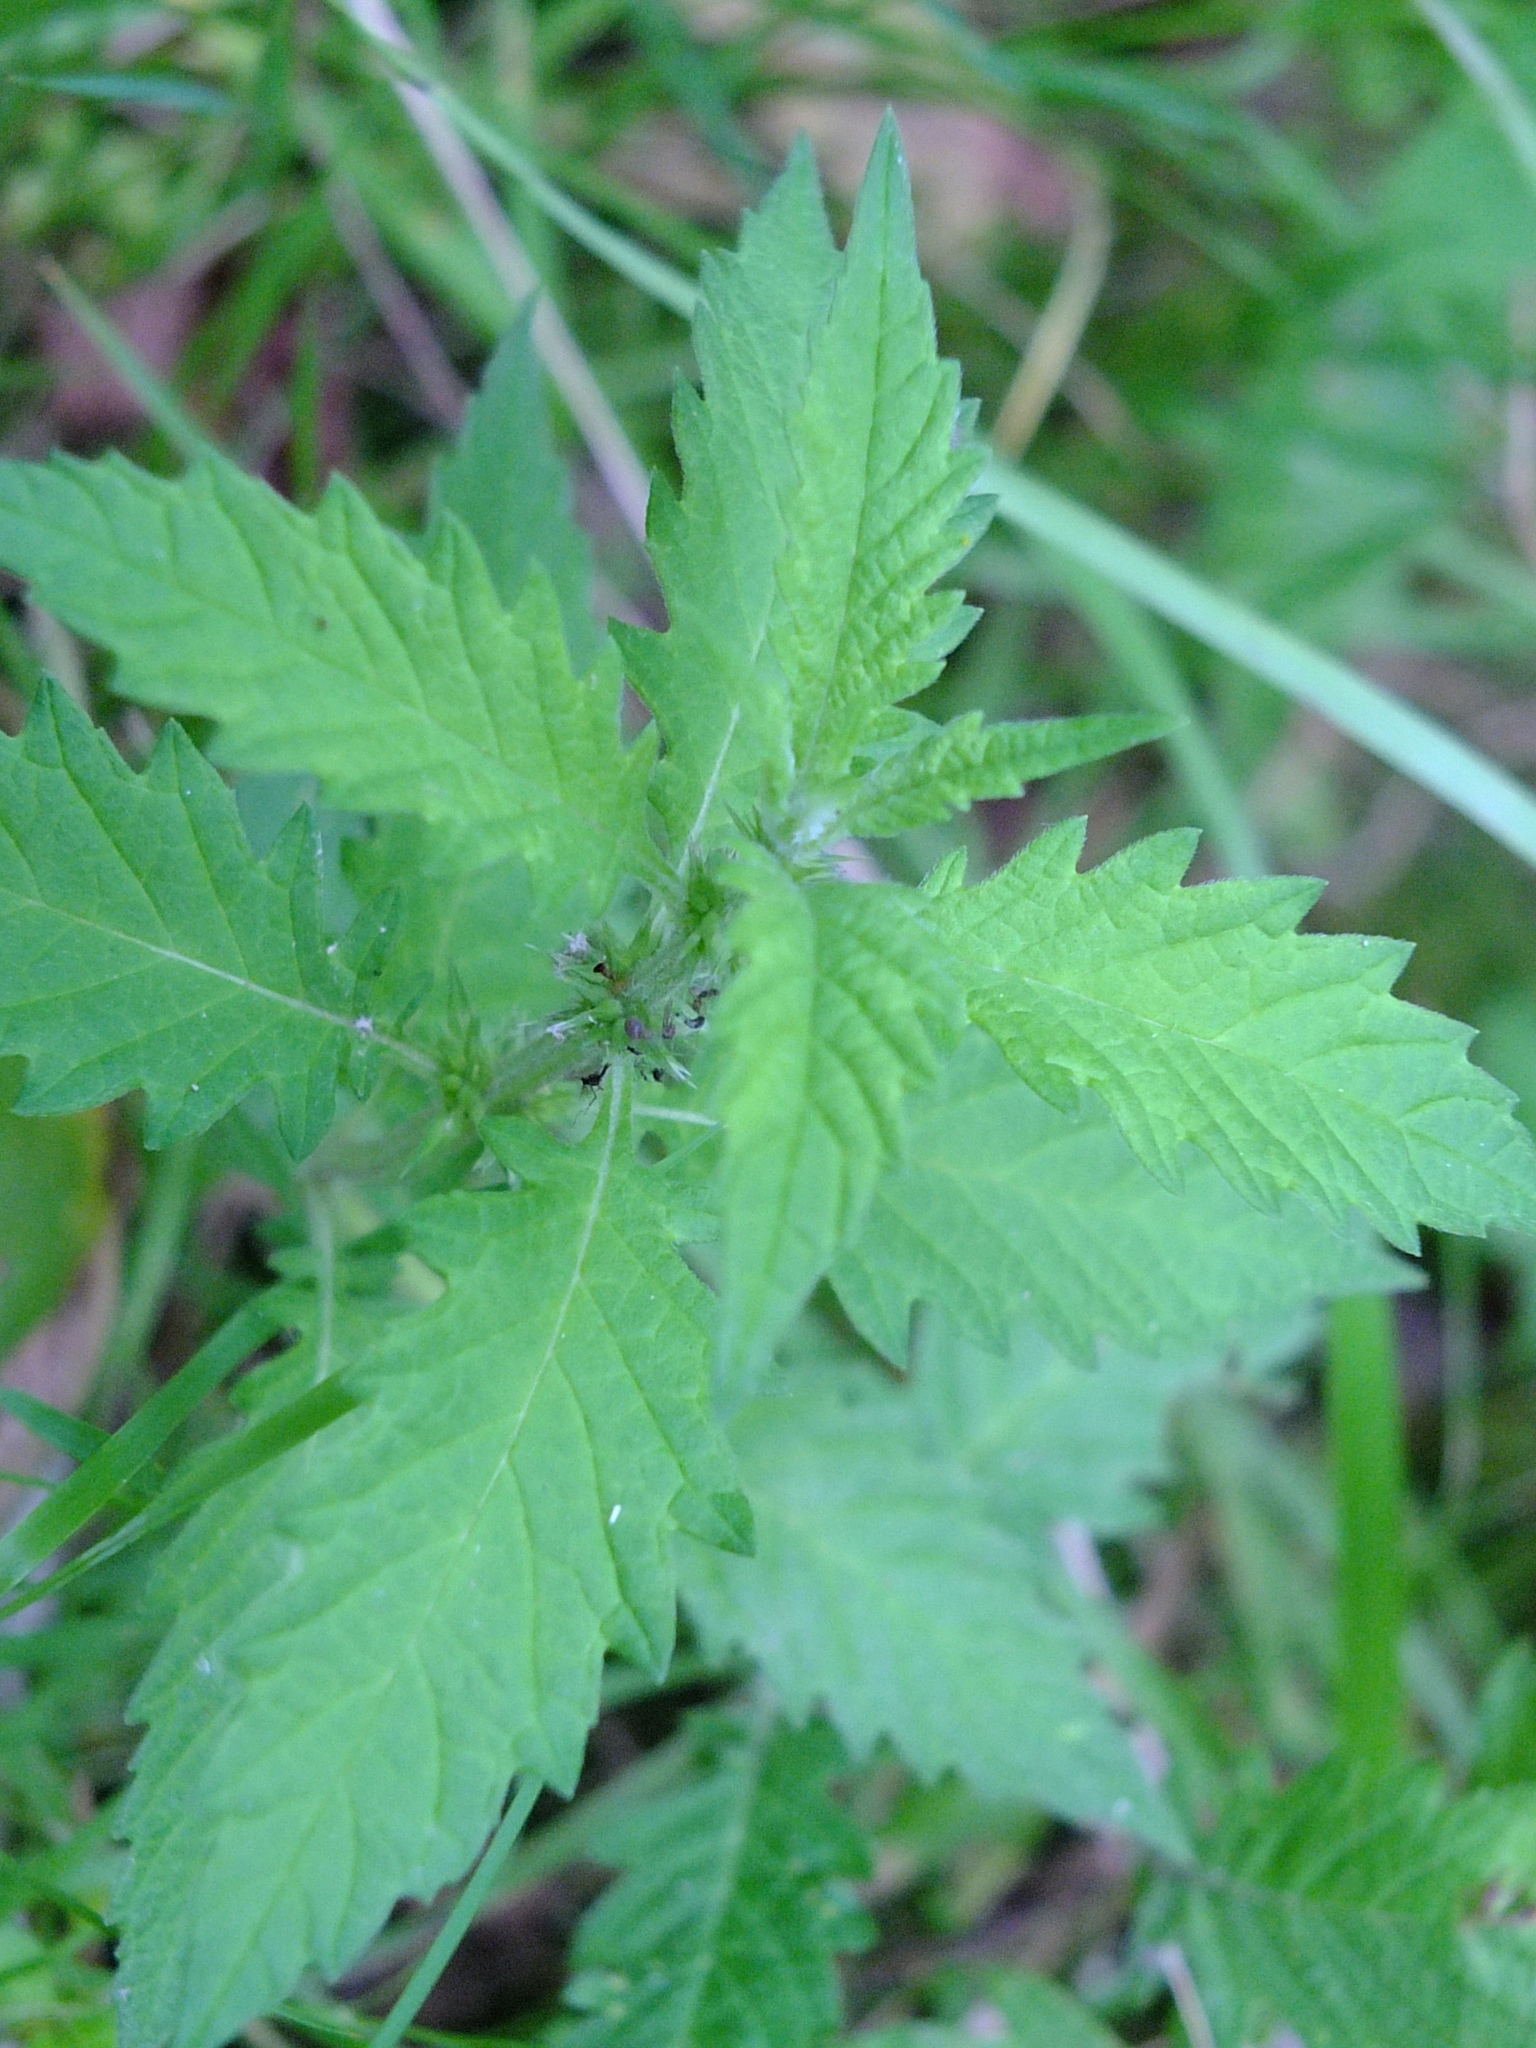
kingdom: Plantae
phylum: Tracheophyta
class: Magnoliopsida
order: Lamiales
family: Lamiaceae
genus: Lycopus
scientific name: Lycopus europaeus
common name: European bugleweed
